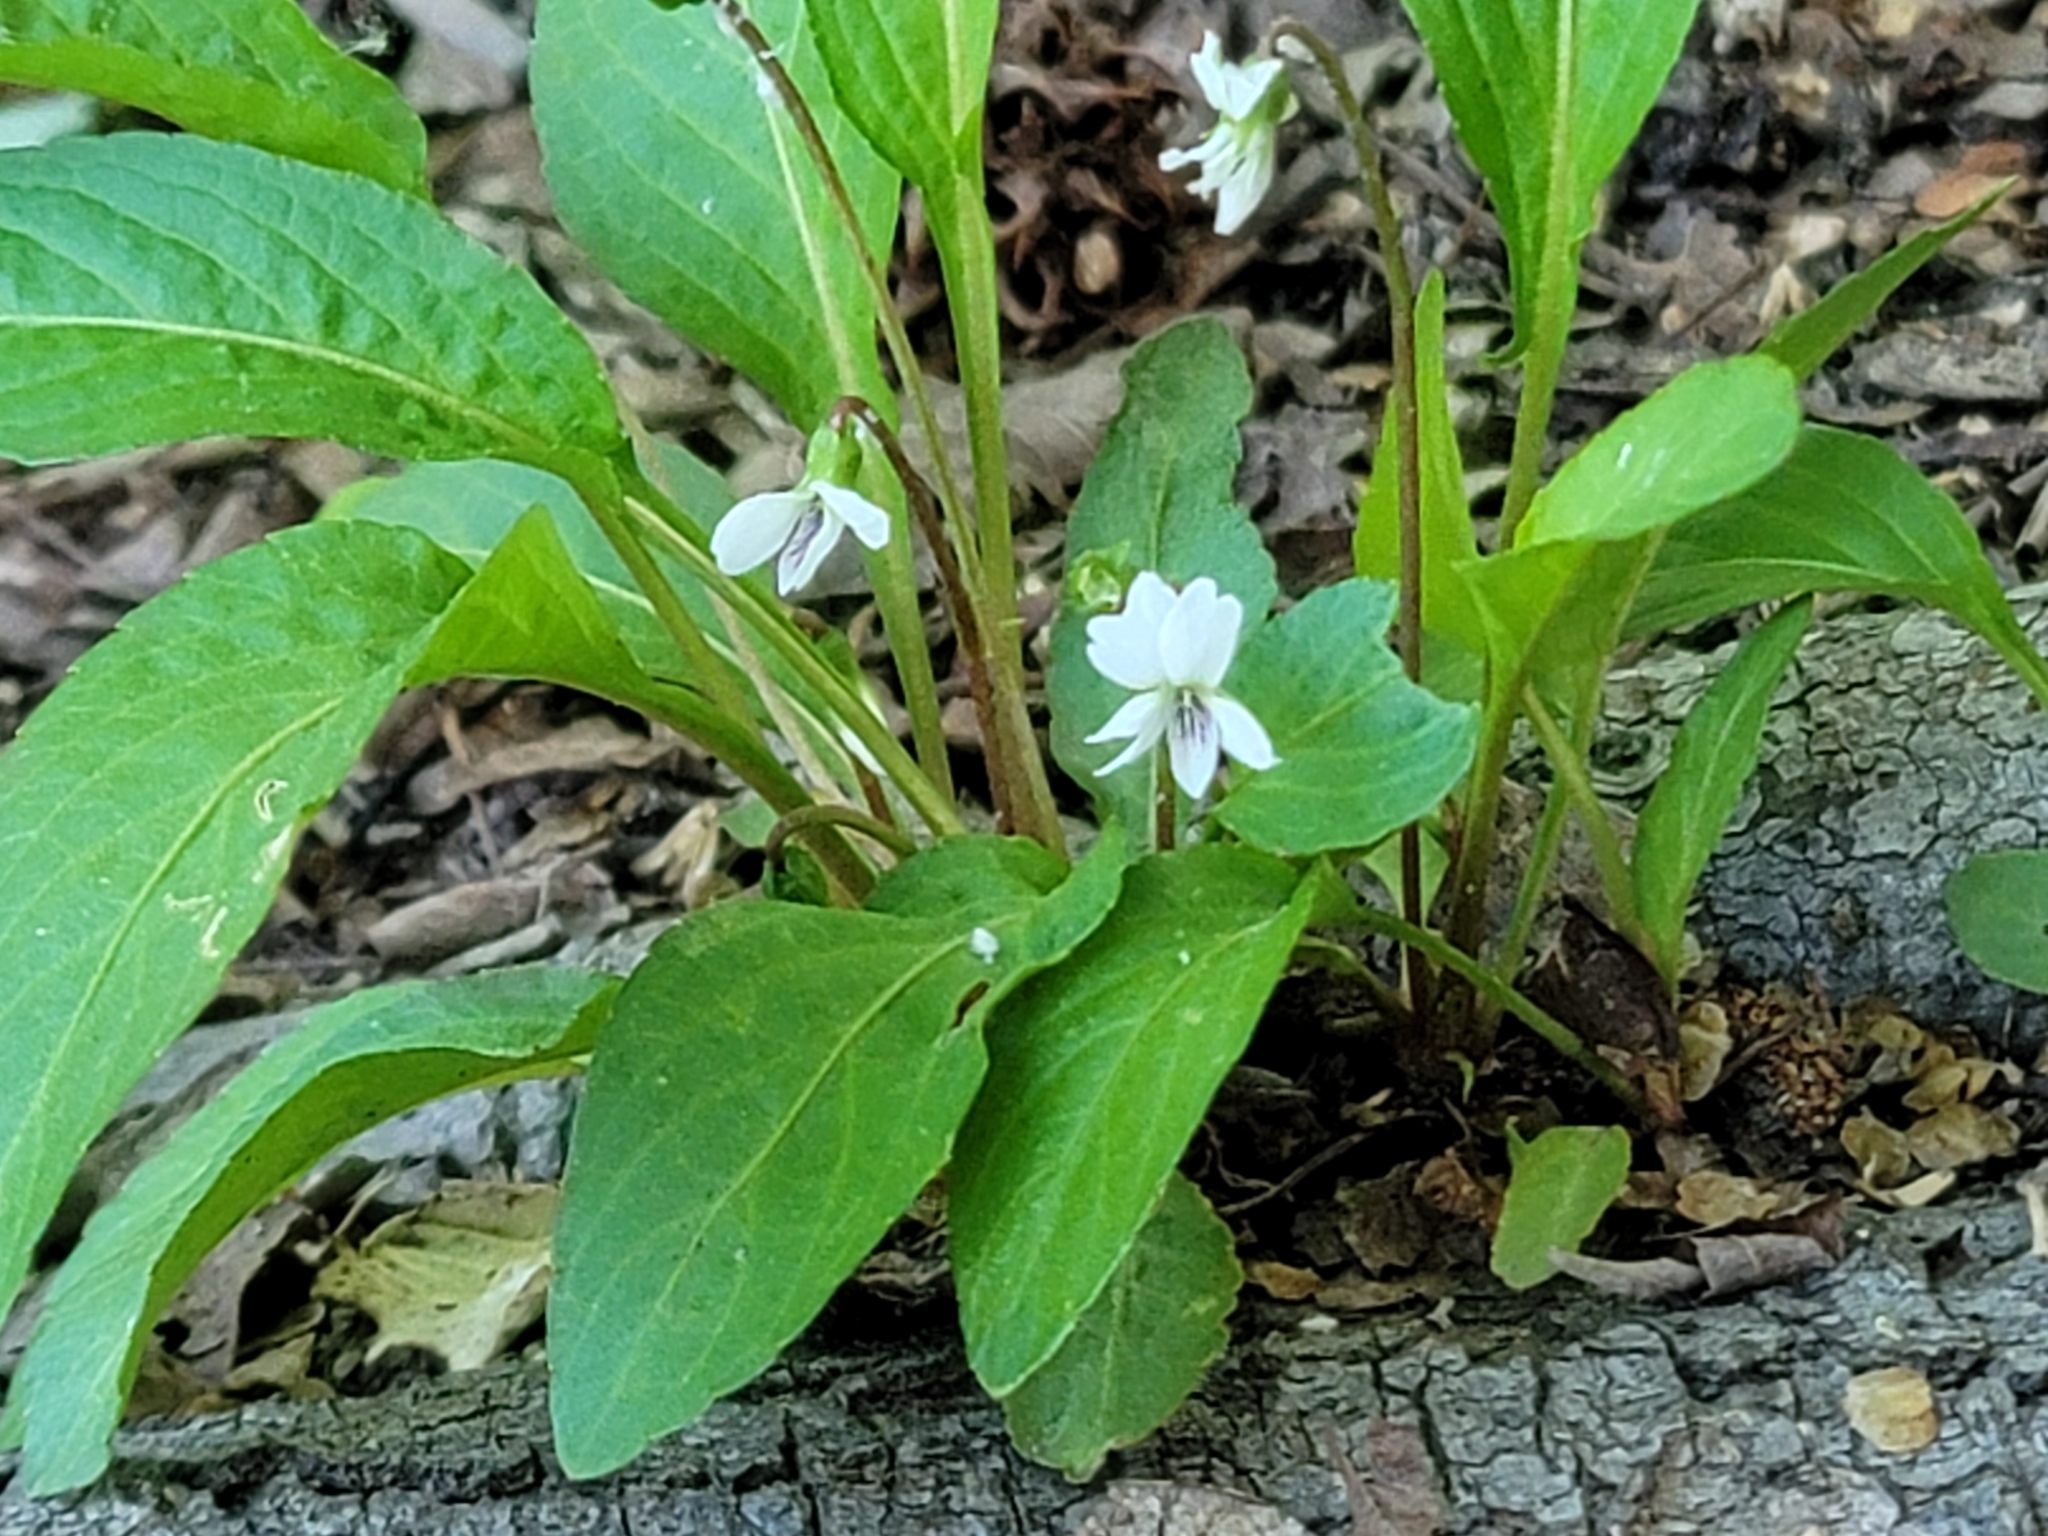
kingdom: Plantae
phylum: Tracheophyta
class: Magnoliopsida
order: Malpighiales
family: Violaceae
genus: Viola
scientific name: Viola lanceolata
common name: Bog white violet
